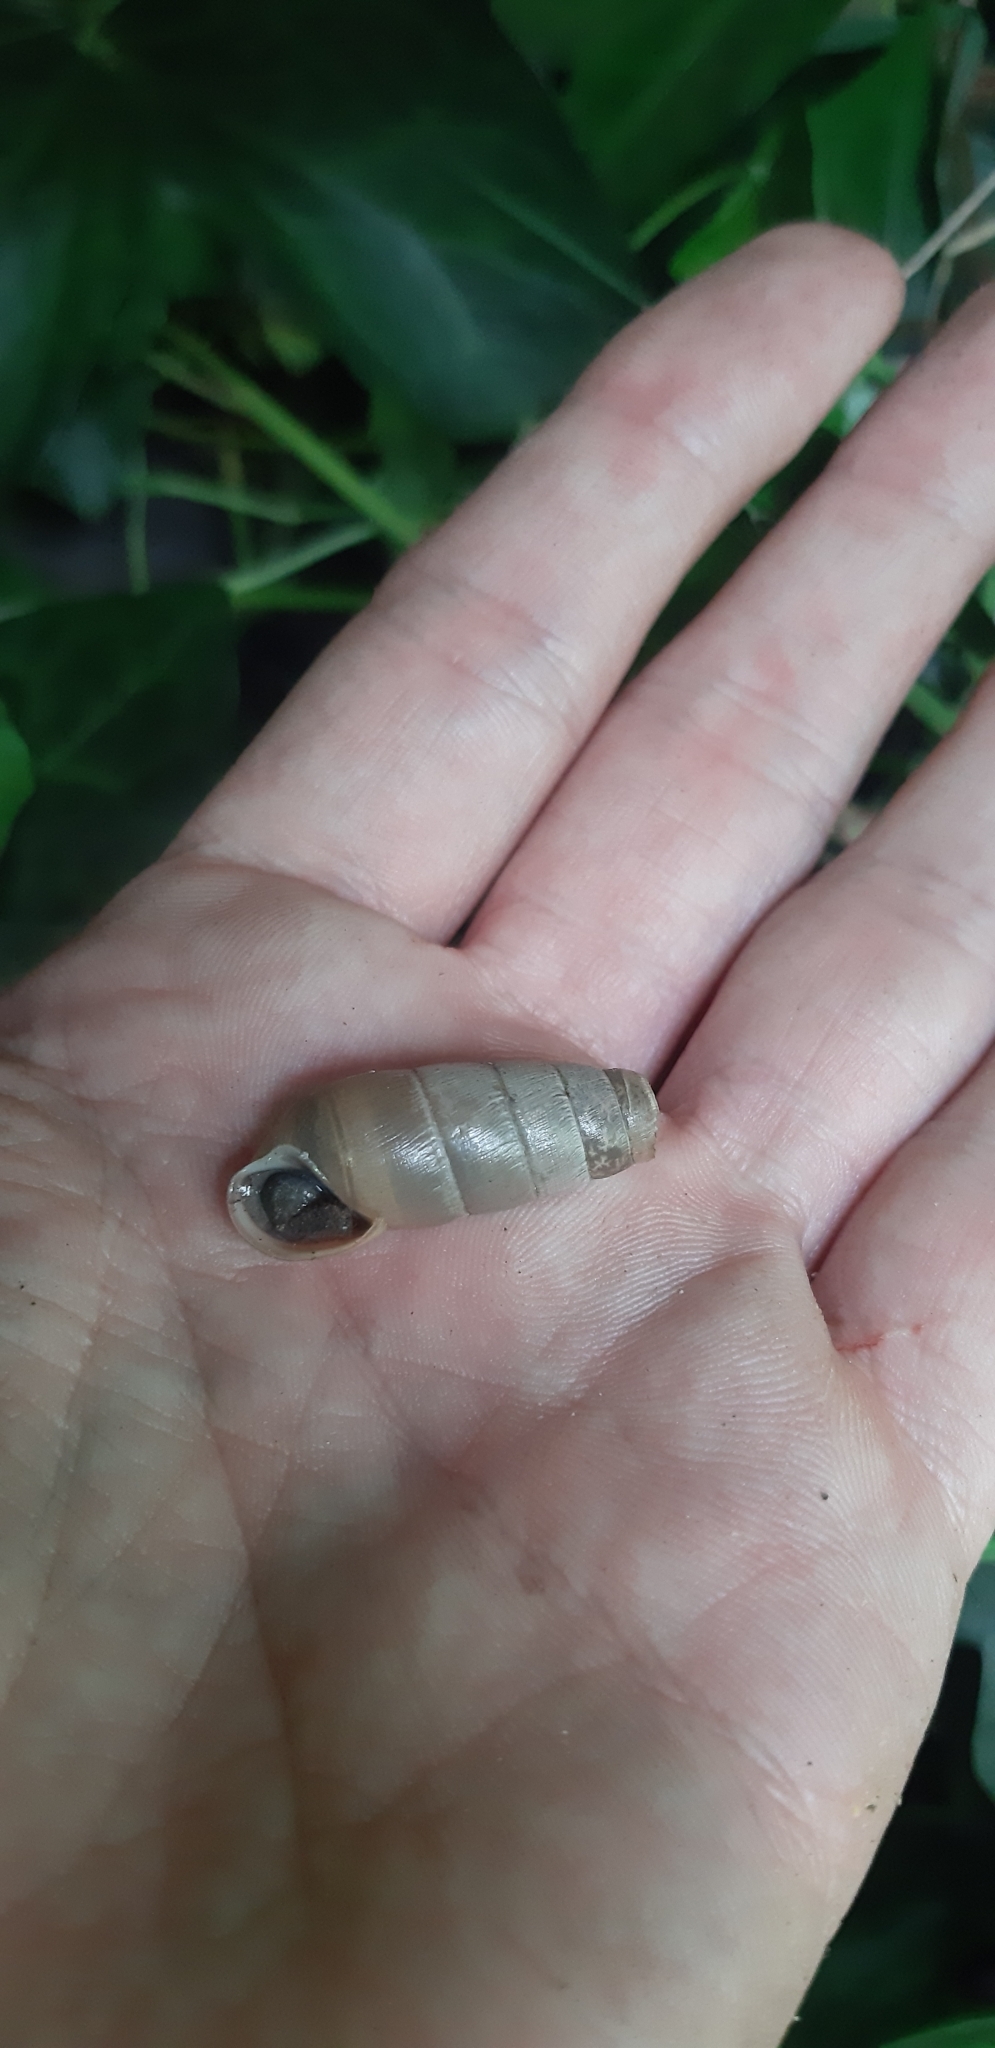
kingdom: Animalia
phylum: Mollusca
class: Gastropoda
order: Stylommatophora
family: Achatinidae
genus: Rumina
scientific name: Rumina decollata
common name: Decollate snail
